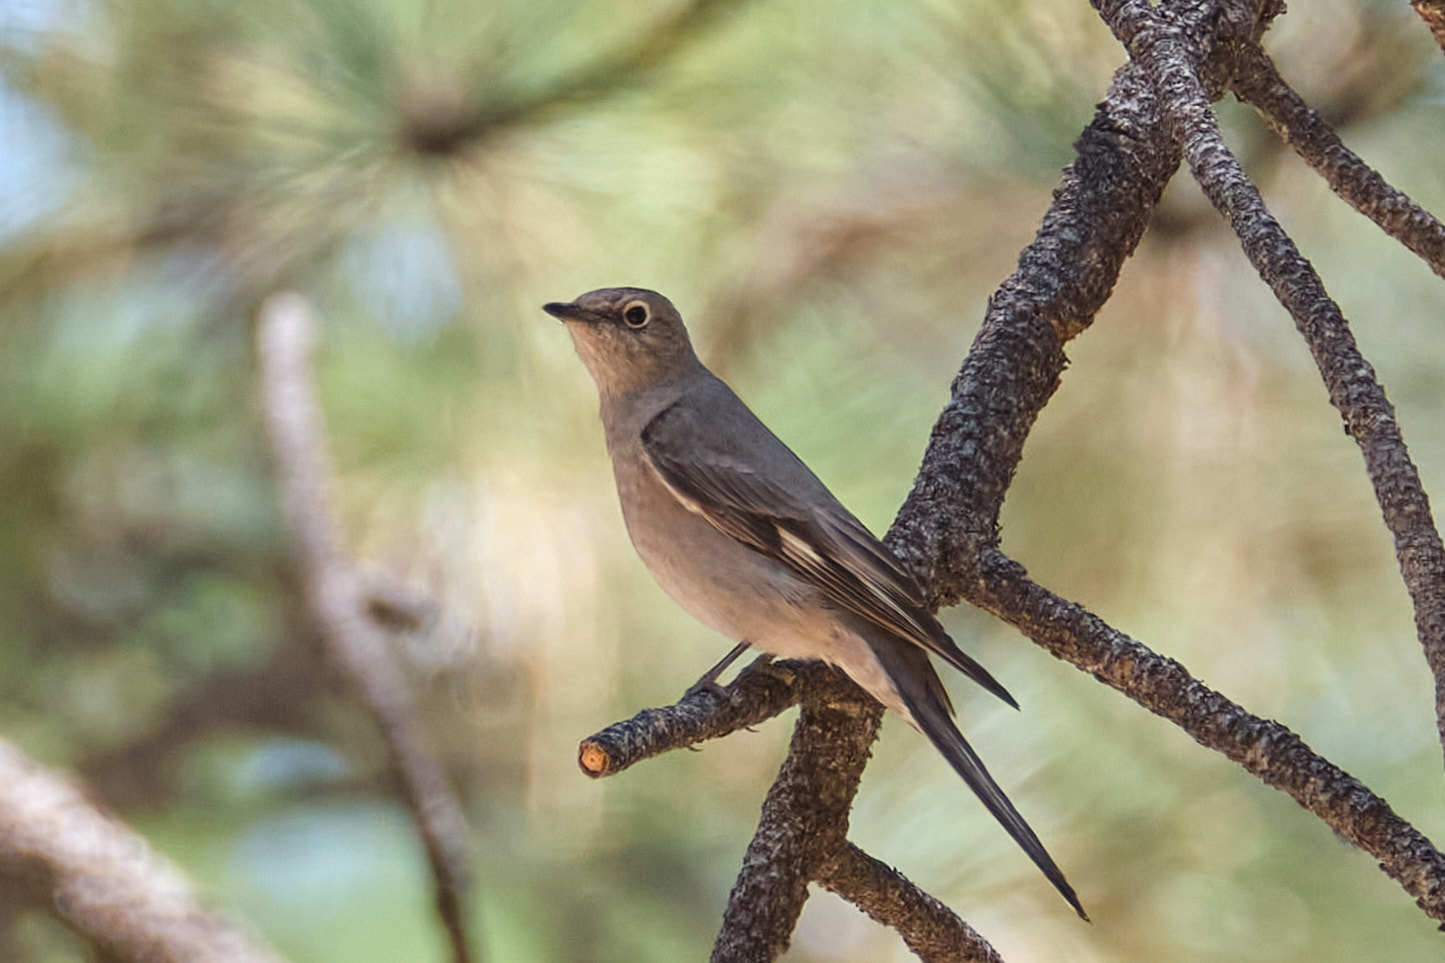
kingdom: Animalia
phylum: Chordata
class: Aves
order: Passeriformes
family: Turdidae
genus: Myadestes
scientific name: Myadestes townsendi
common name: Townsend's solitaire
